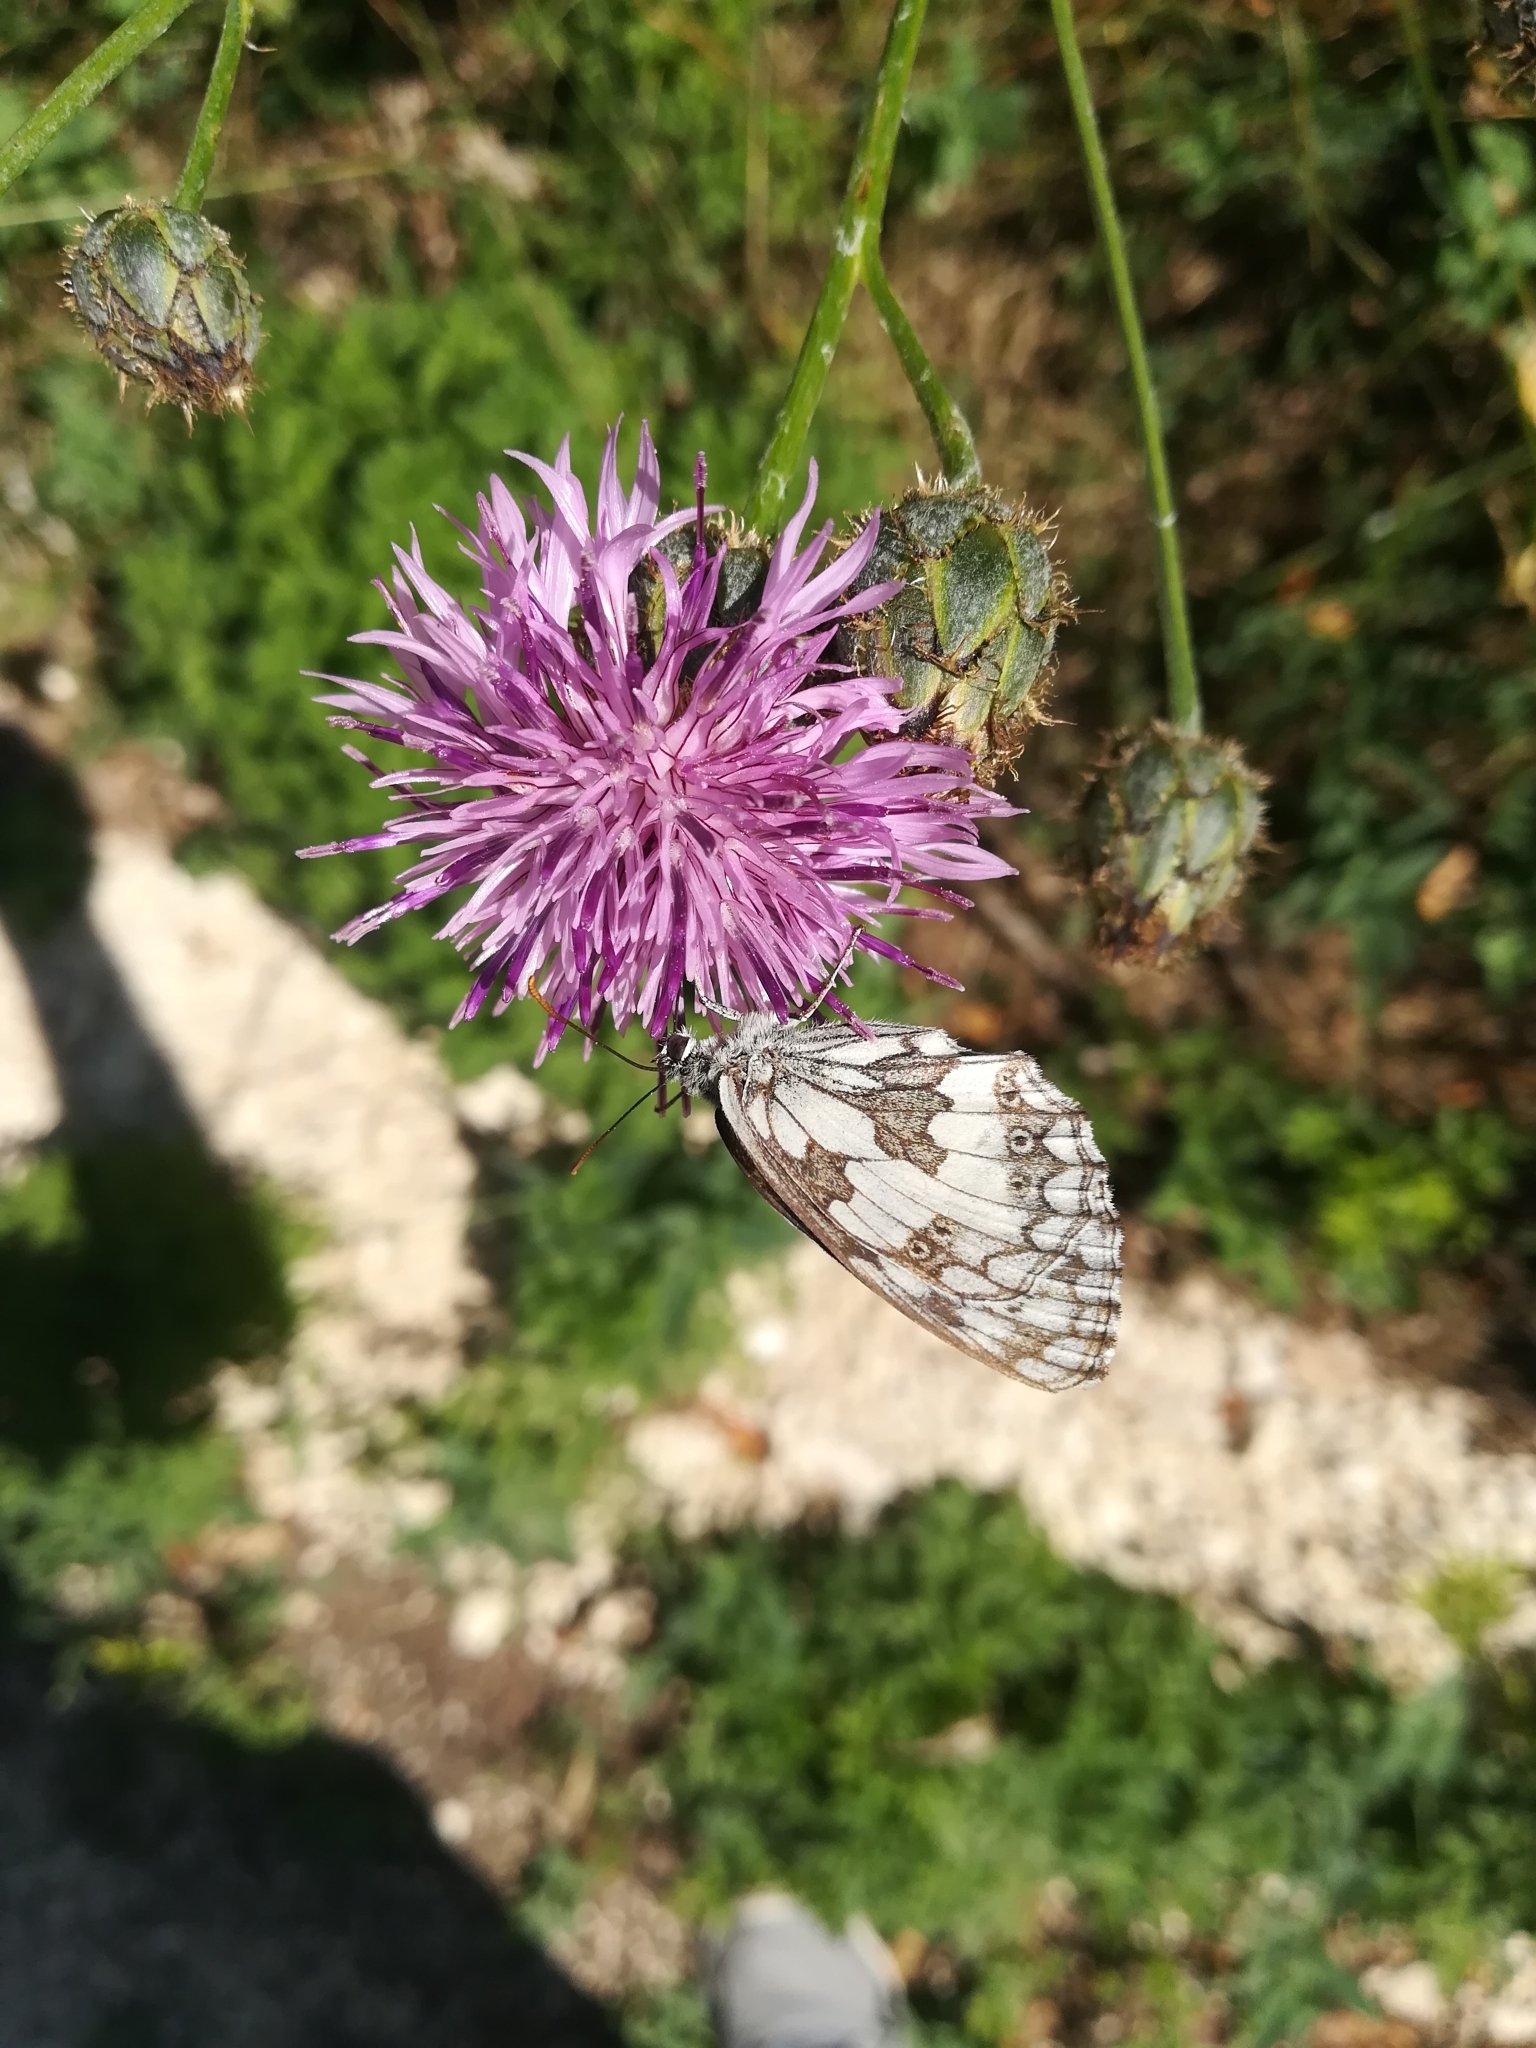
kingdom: Animalia
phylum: Arthropoda
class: Insecta
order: Lepidoptera
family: Nymphalidae
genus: Melanargia
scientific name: Melanargia galathea
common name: Marbled white
